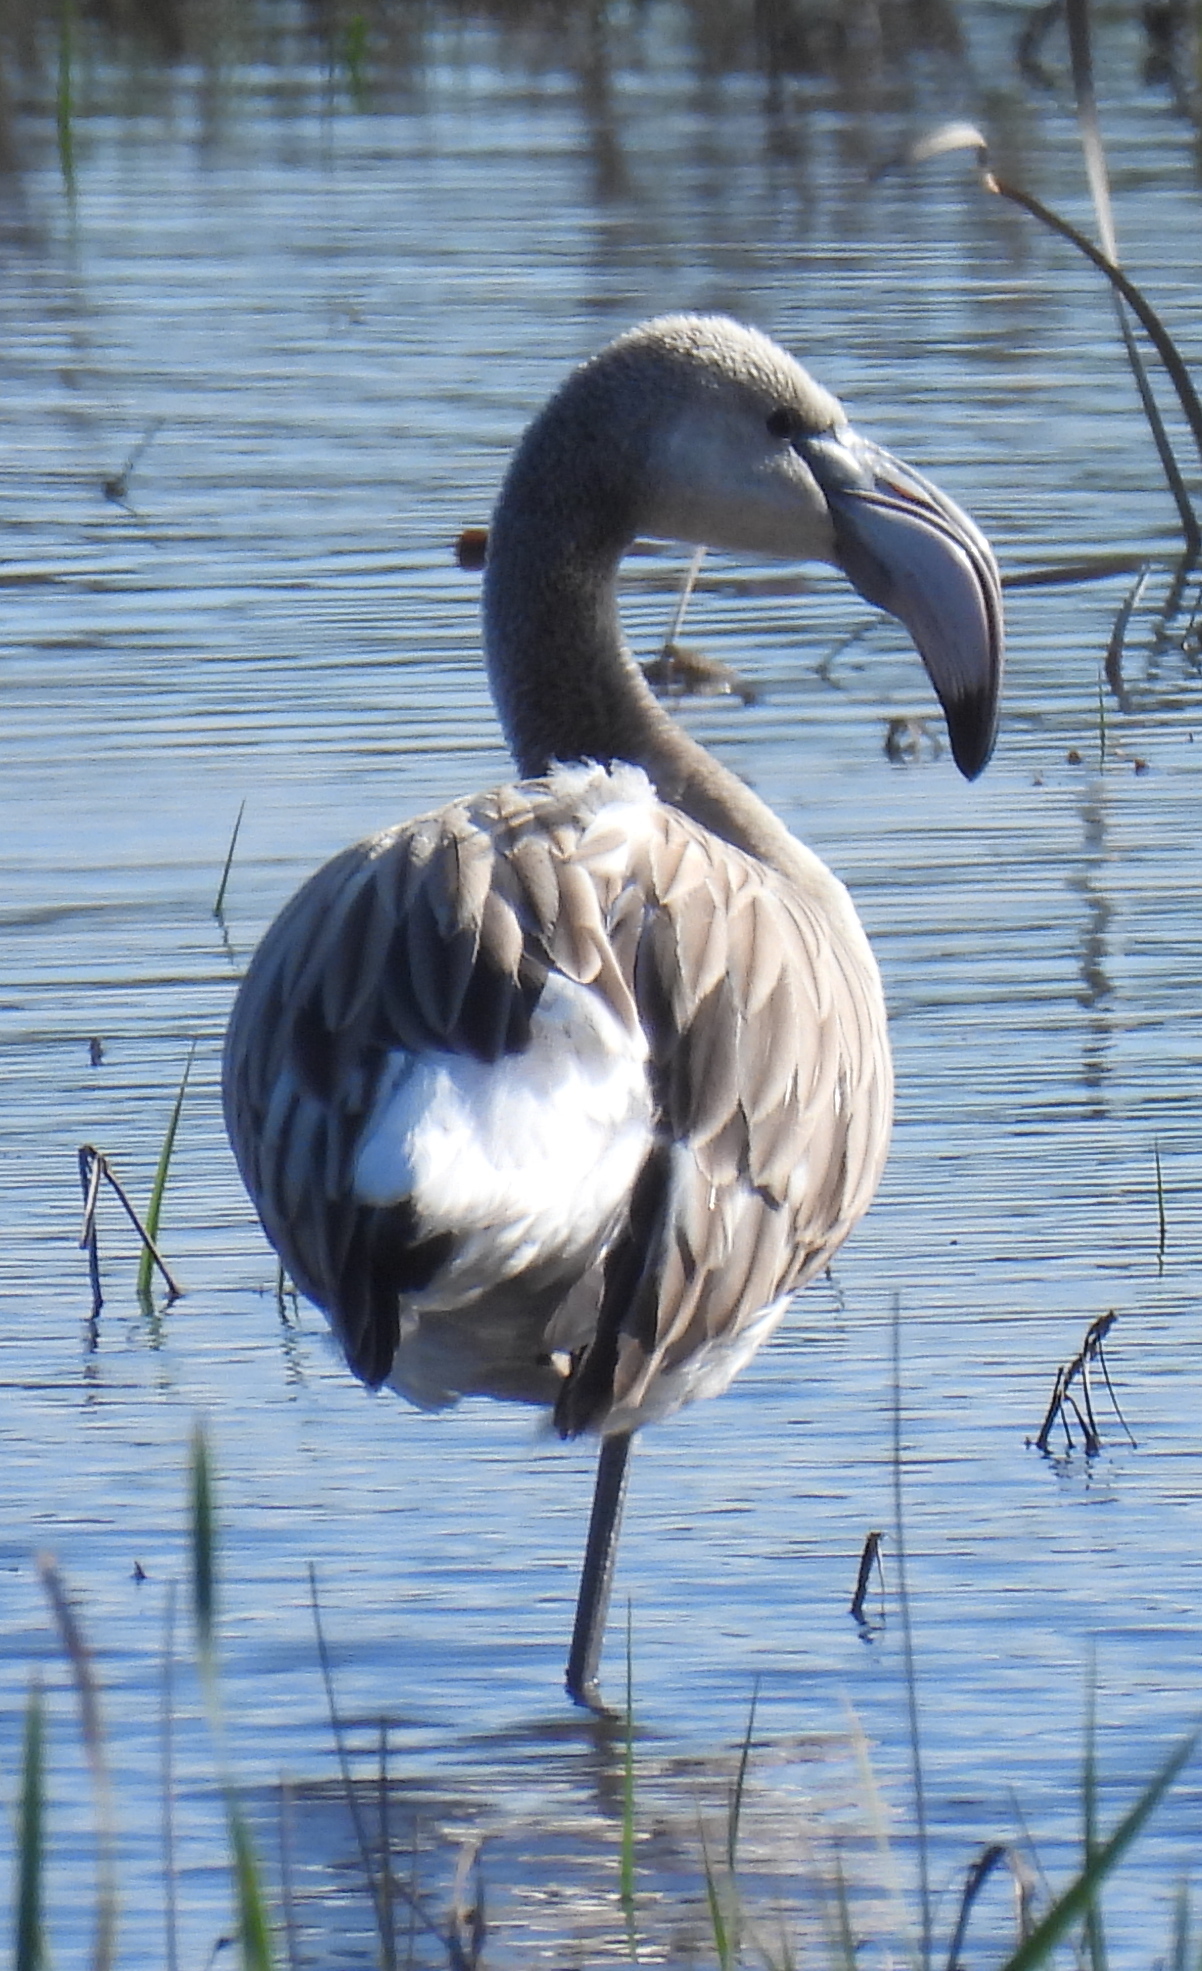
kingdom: Animalia
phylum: Chordata
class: Aves
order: Phoenicopteriformes
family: Phoenicopteridae
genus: Phoenicopterus
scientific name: Phoenicopterus roseus
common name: Greater flamingo
